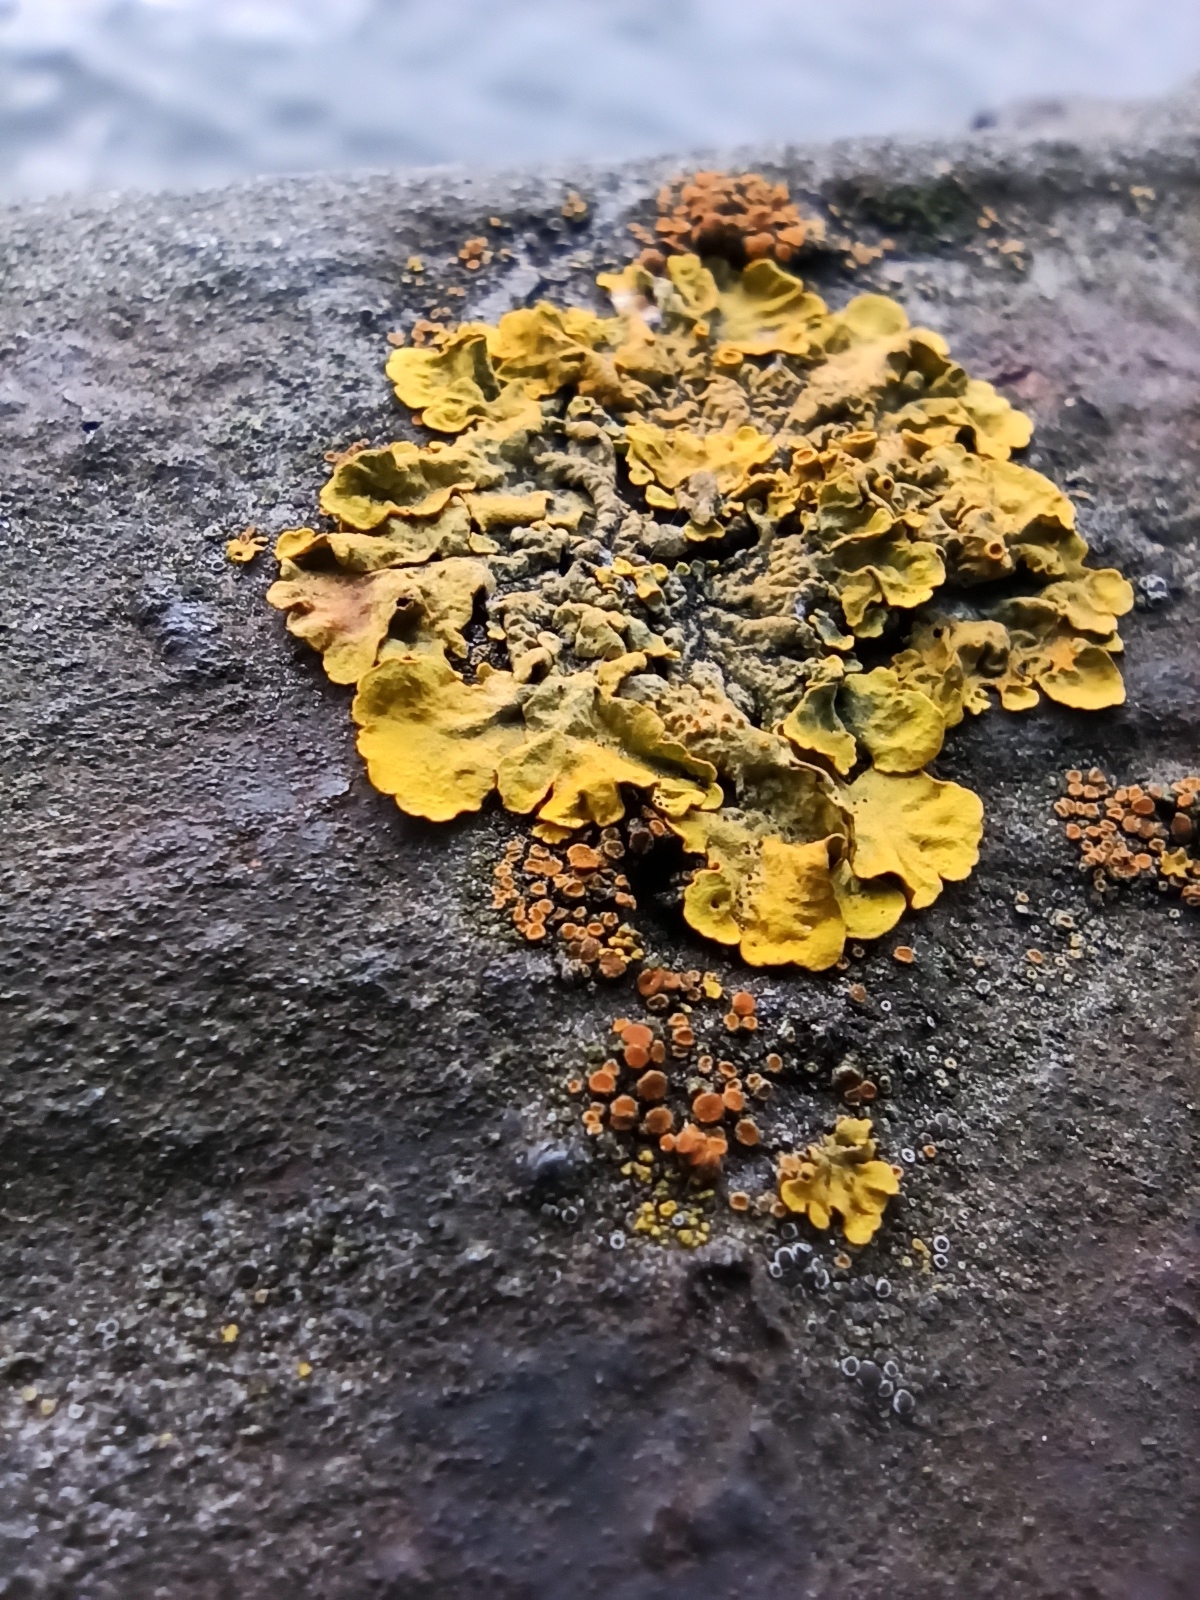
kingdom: Fungi
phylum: Ascomycota
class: Lecanoromycetes
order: Teloschistales
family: Teloschistaceae
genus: Xanthoria
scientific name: Xanthoria parietina
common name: Common orange lichen
